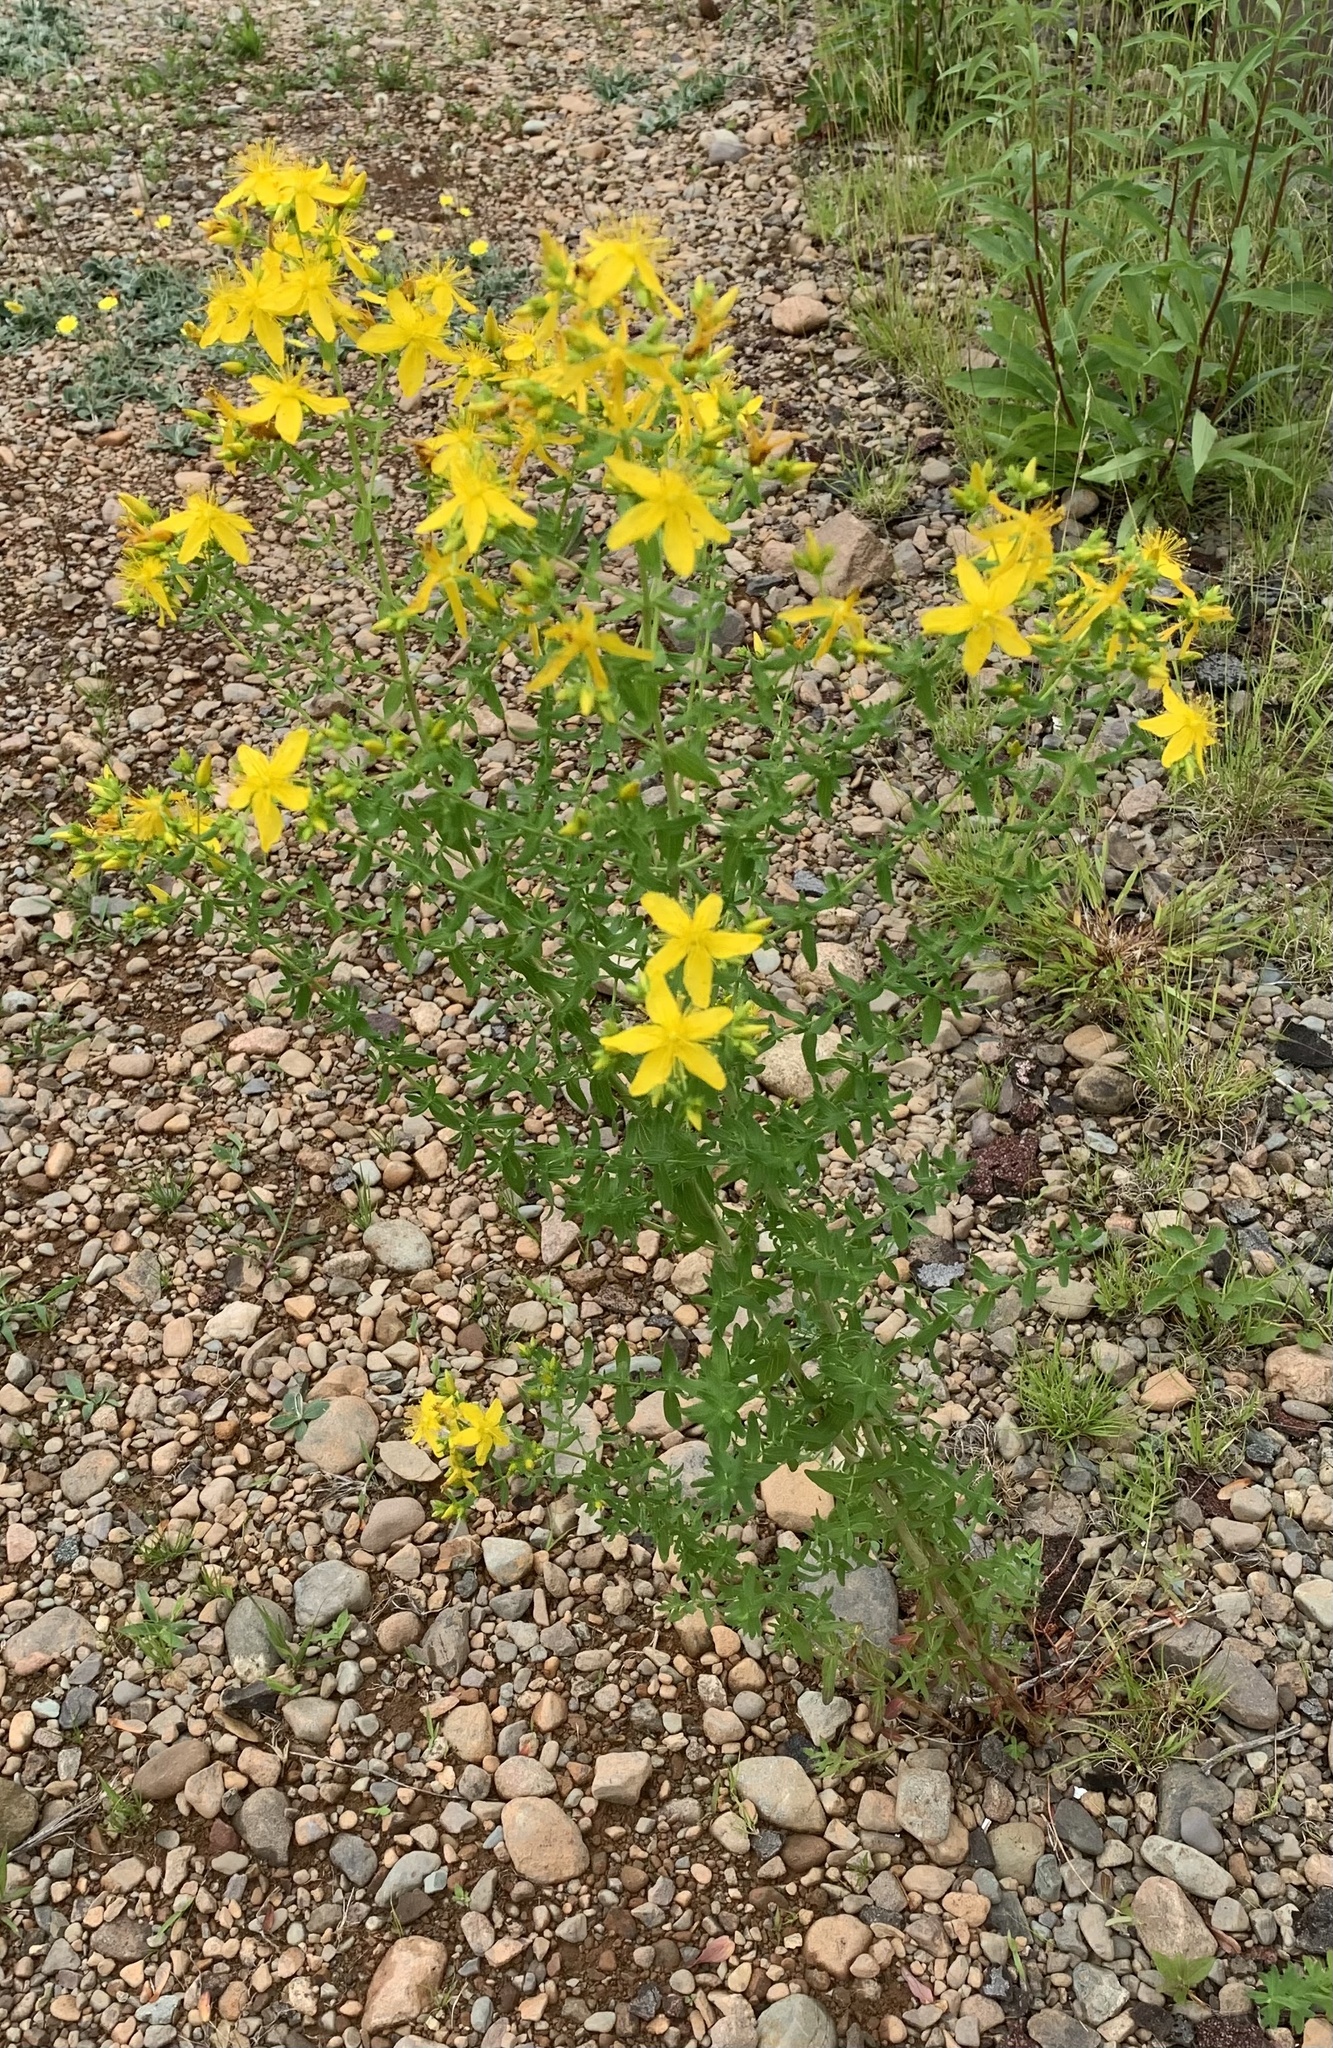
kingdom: Plantae
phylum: Tracheophyta
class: Magnoliopsida
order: Malpighiales
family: Hypericaceae
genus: Hypericum
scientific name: Hypericum perforatum
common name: Common st. johnswort
